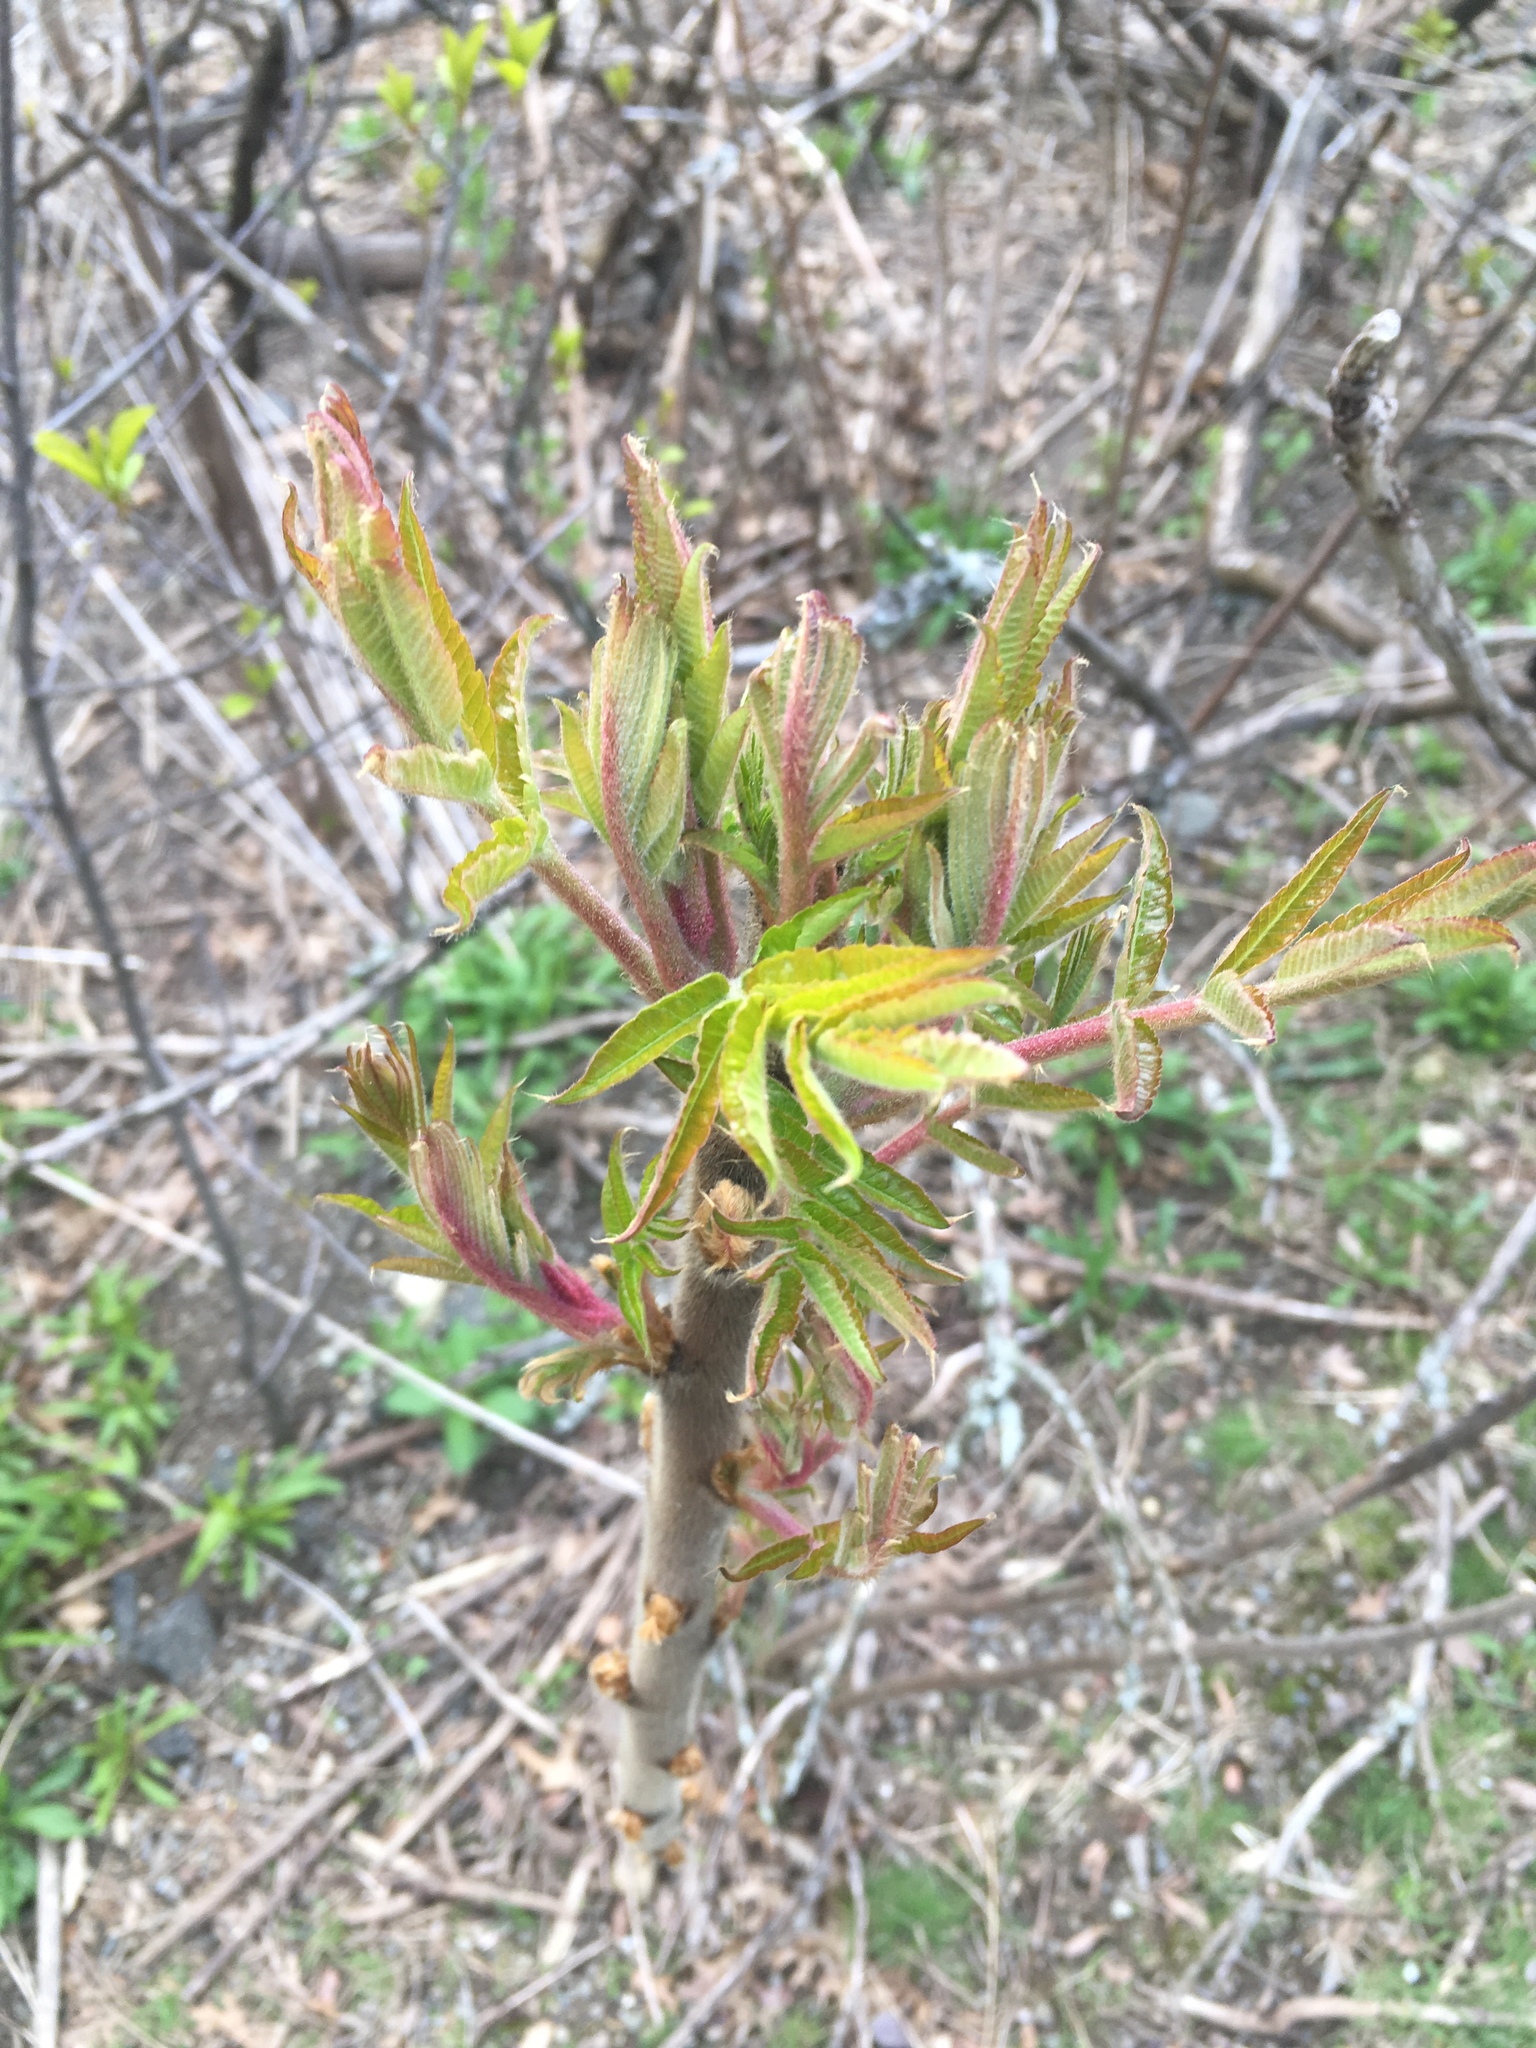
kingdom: Plantae
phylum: Tracheophyta
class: Magnoliopsida
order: Sapindales
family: Anacardiaceae
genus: Rhus
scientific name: Rhus typhina
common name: Staghorn sumac
